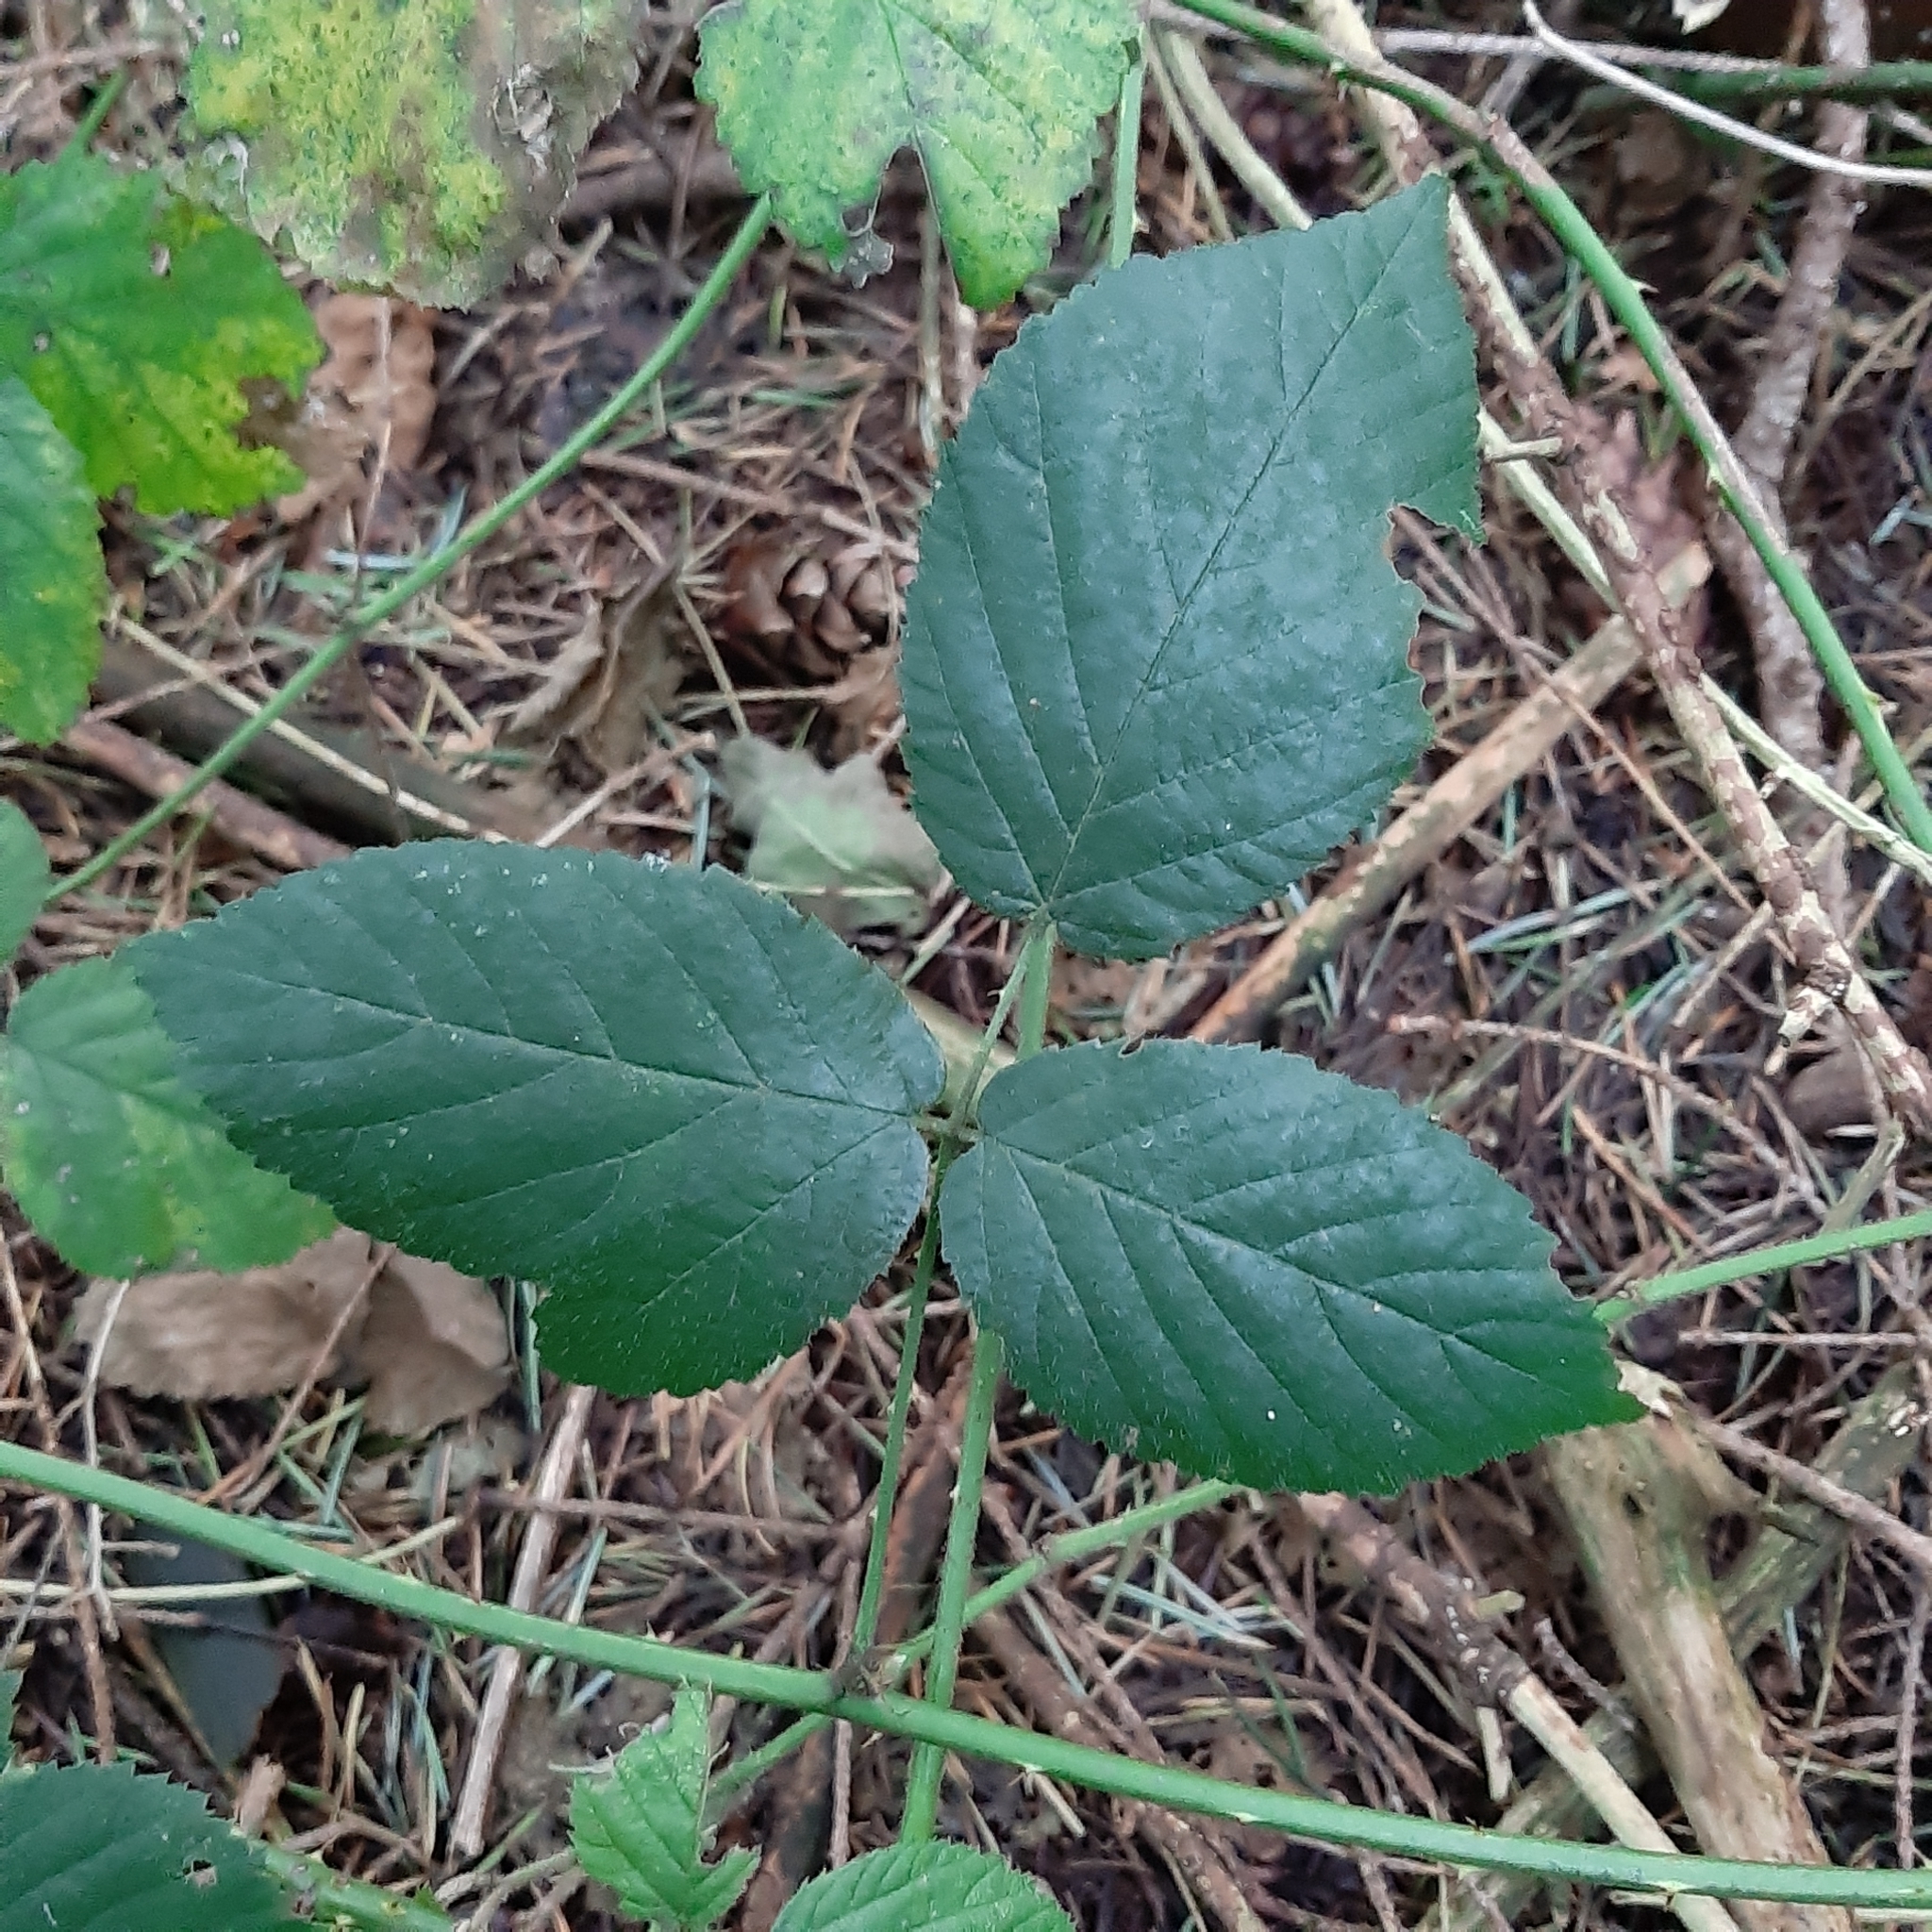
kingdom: Plantae
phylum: Tracheophyta
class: Magnoliopsida
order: Rosales
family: Rosaceae
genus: Rubus
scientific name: Rubus armeniacus
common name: Himalayan blackberry
